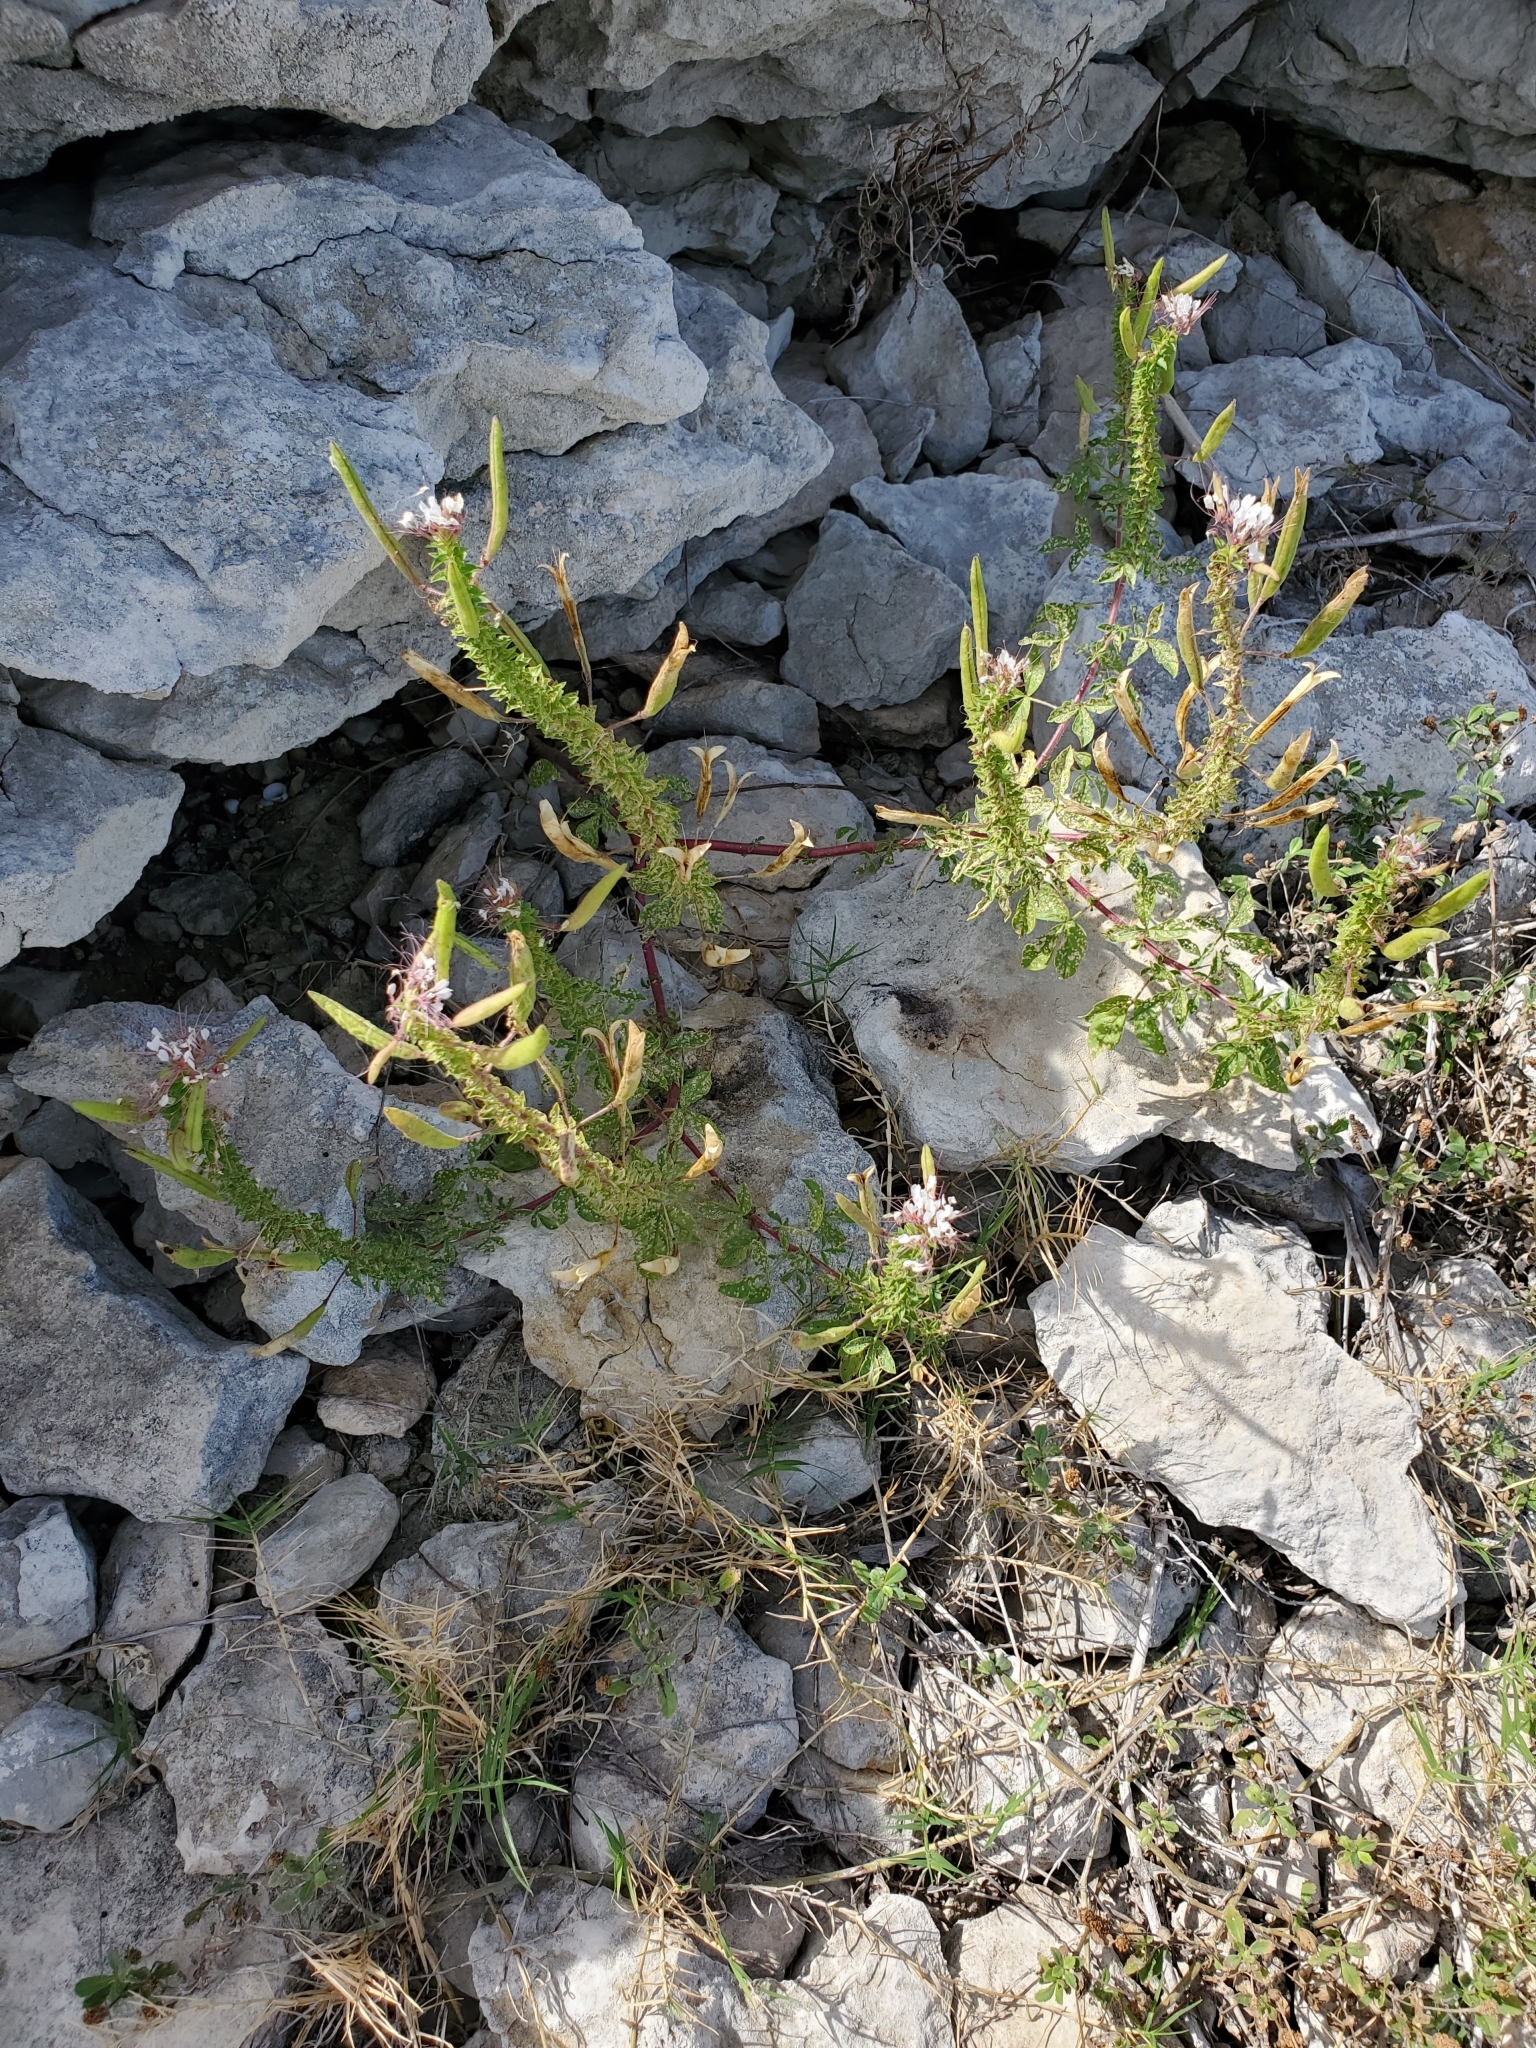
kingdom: Plantae
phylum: Tracheophyta
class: Magnoliopsida
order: Brassicales
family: Cleomaceae
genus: Polanisia
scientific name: Polanisia dodecandra
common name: Clammyweed
